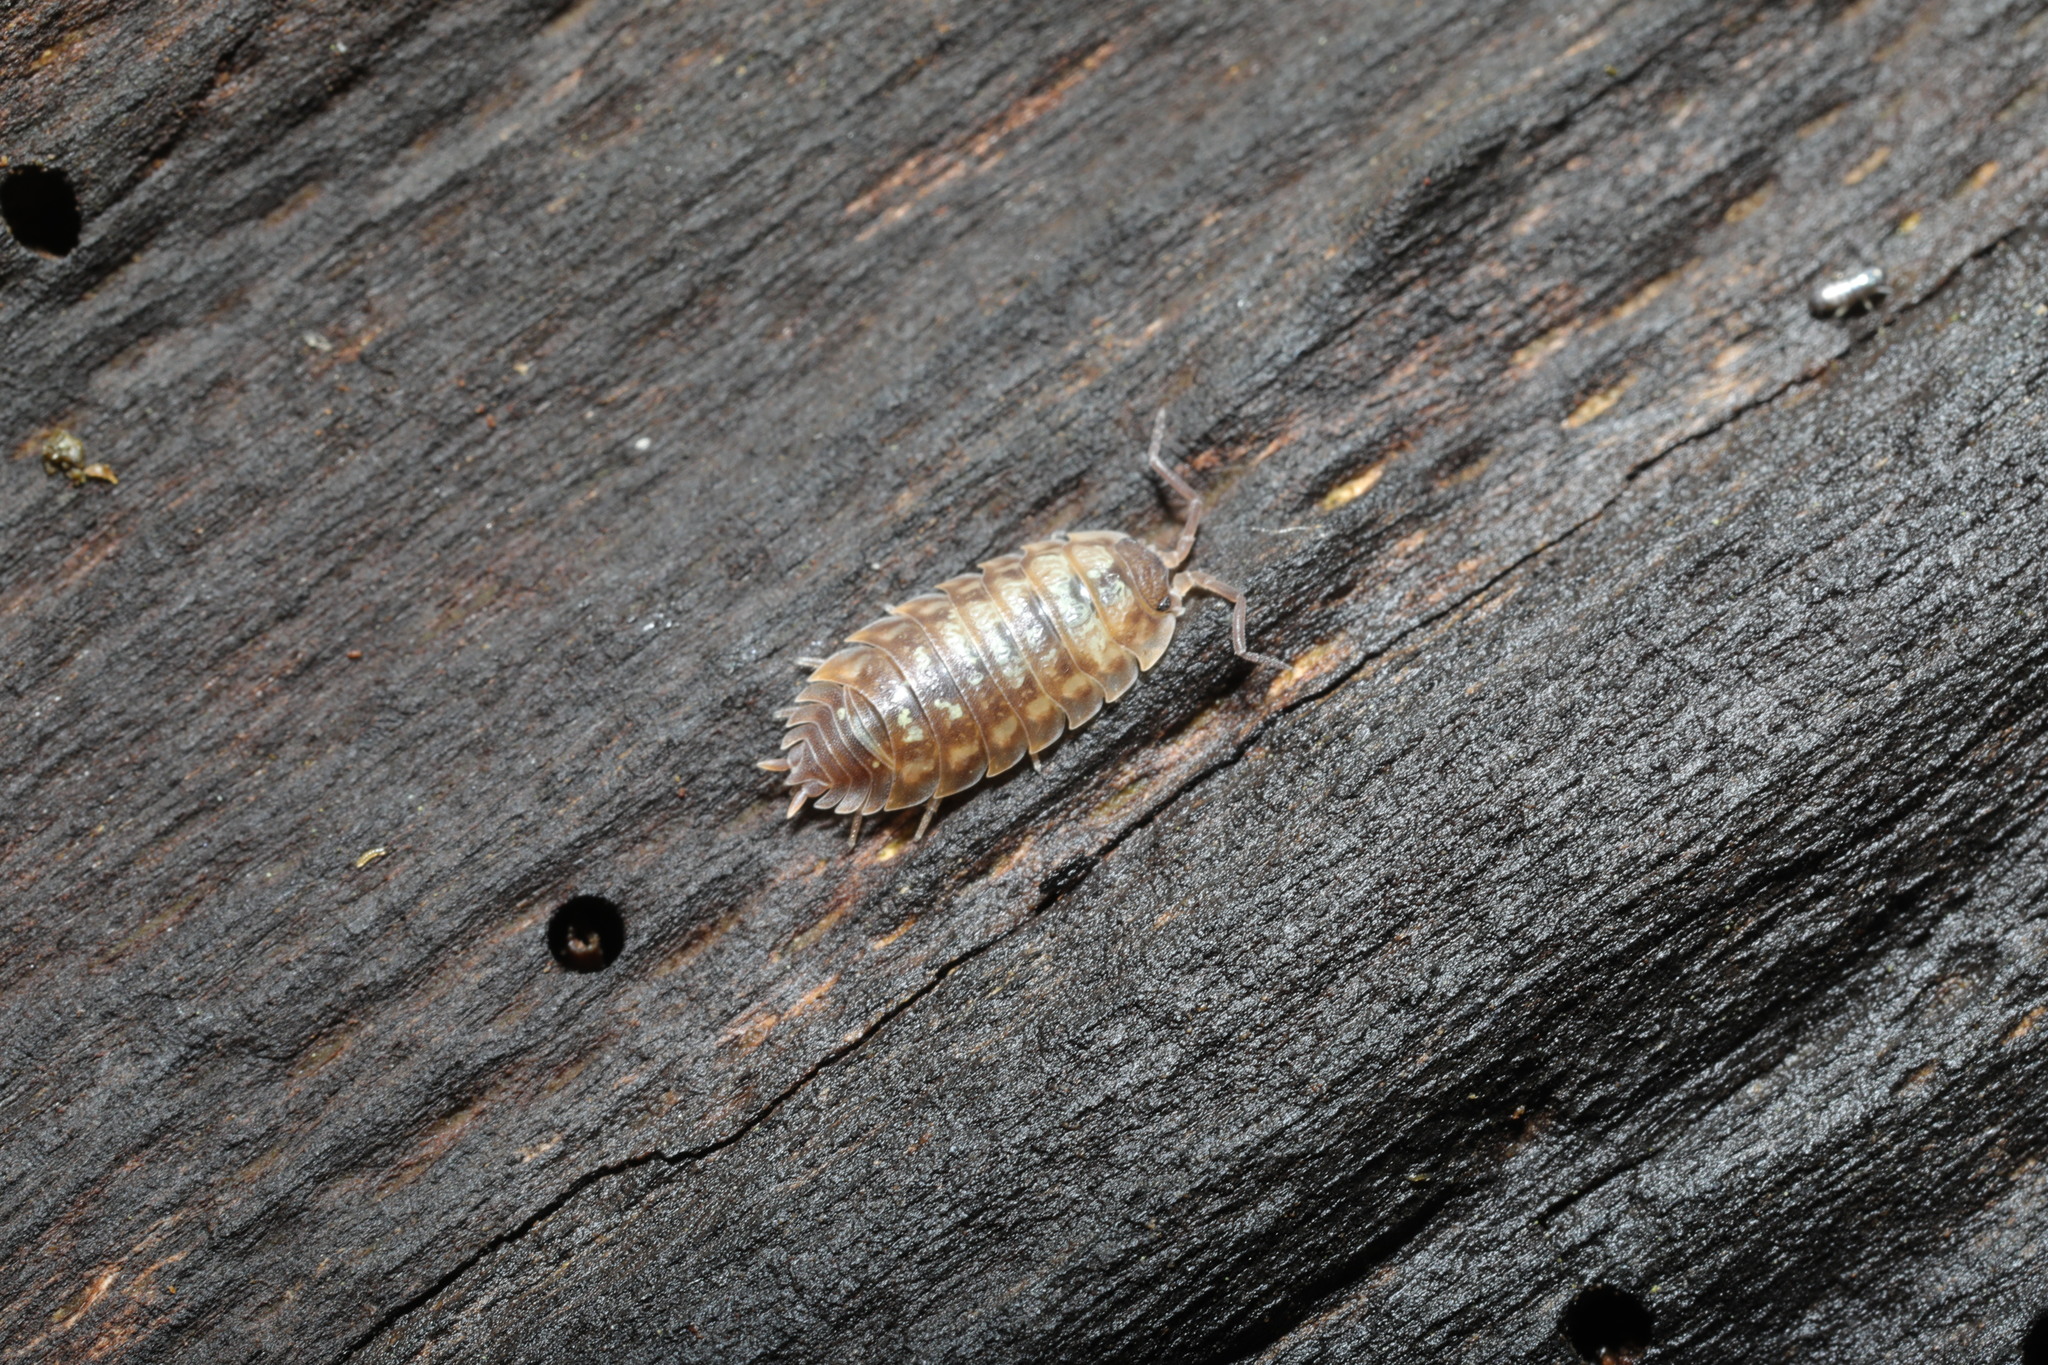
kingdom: Animalia
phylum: Arthropoda
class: Malacostraca
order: Isopoda
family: Oniscidae
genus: Oniscus
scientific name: Oniscus asellus
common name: Common shiny woodlouse
